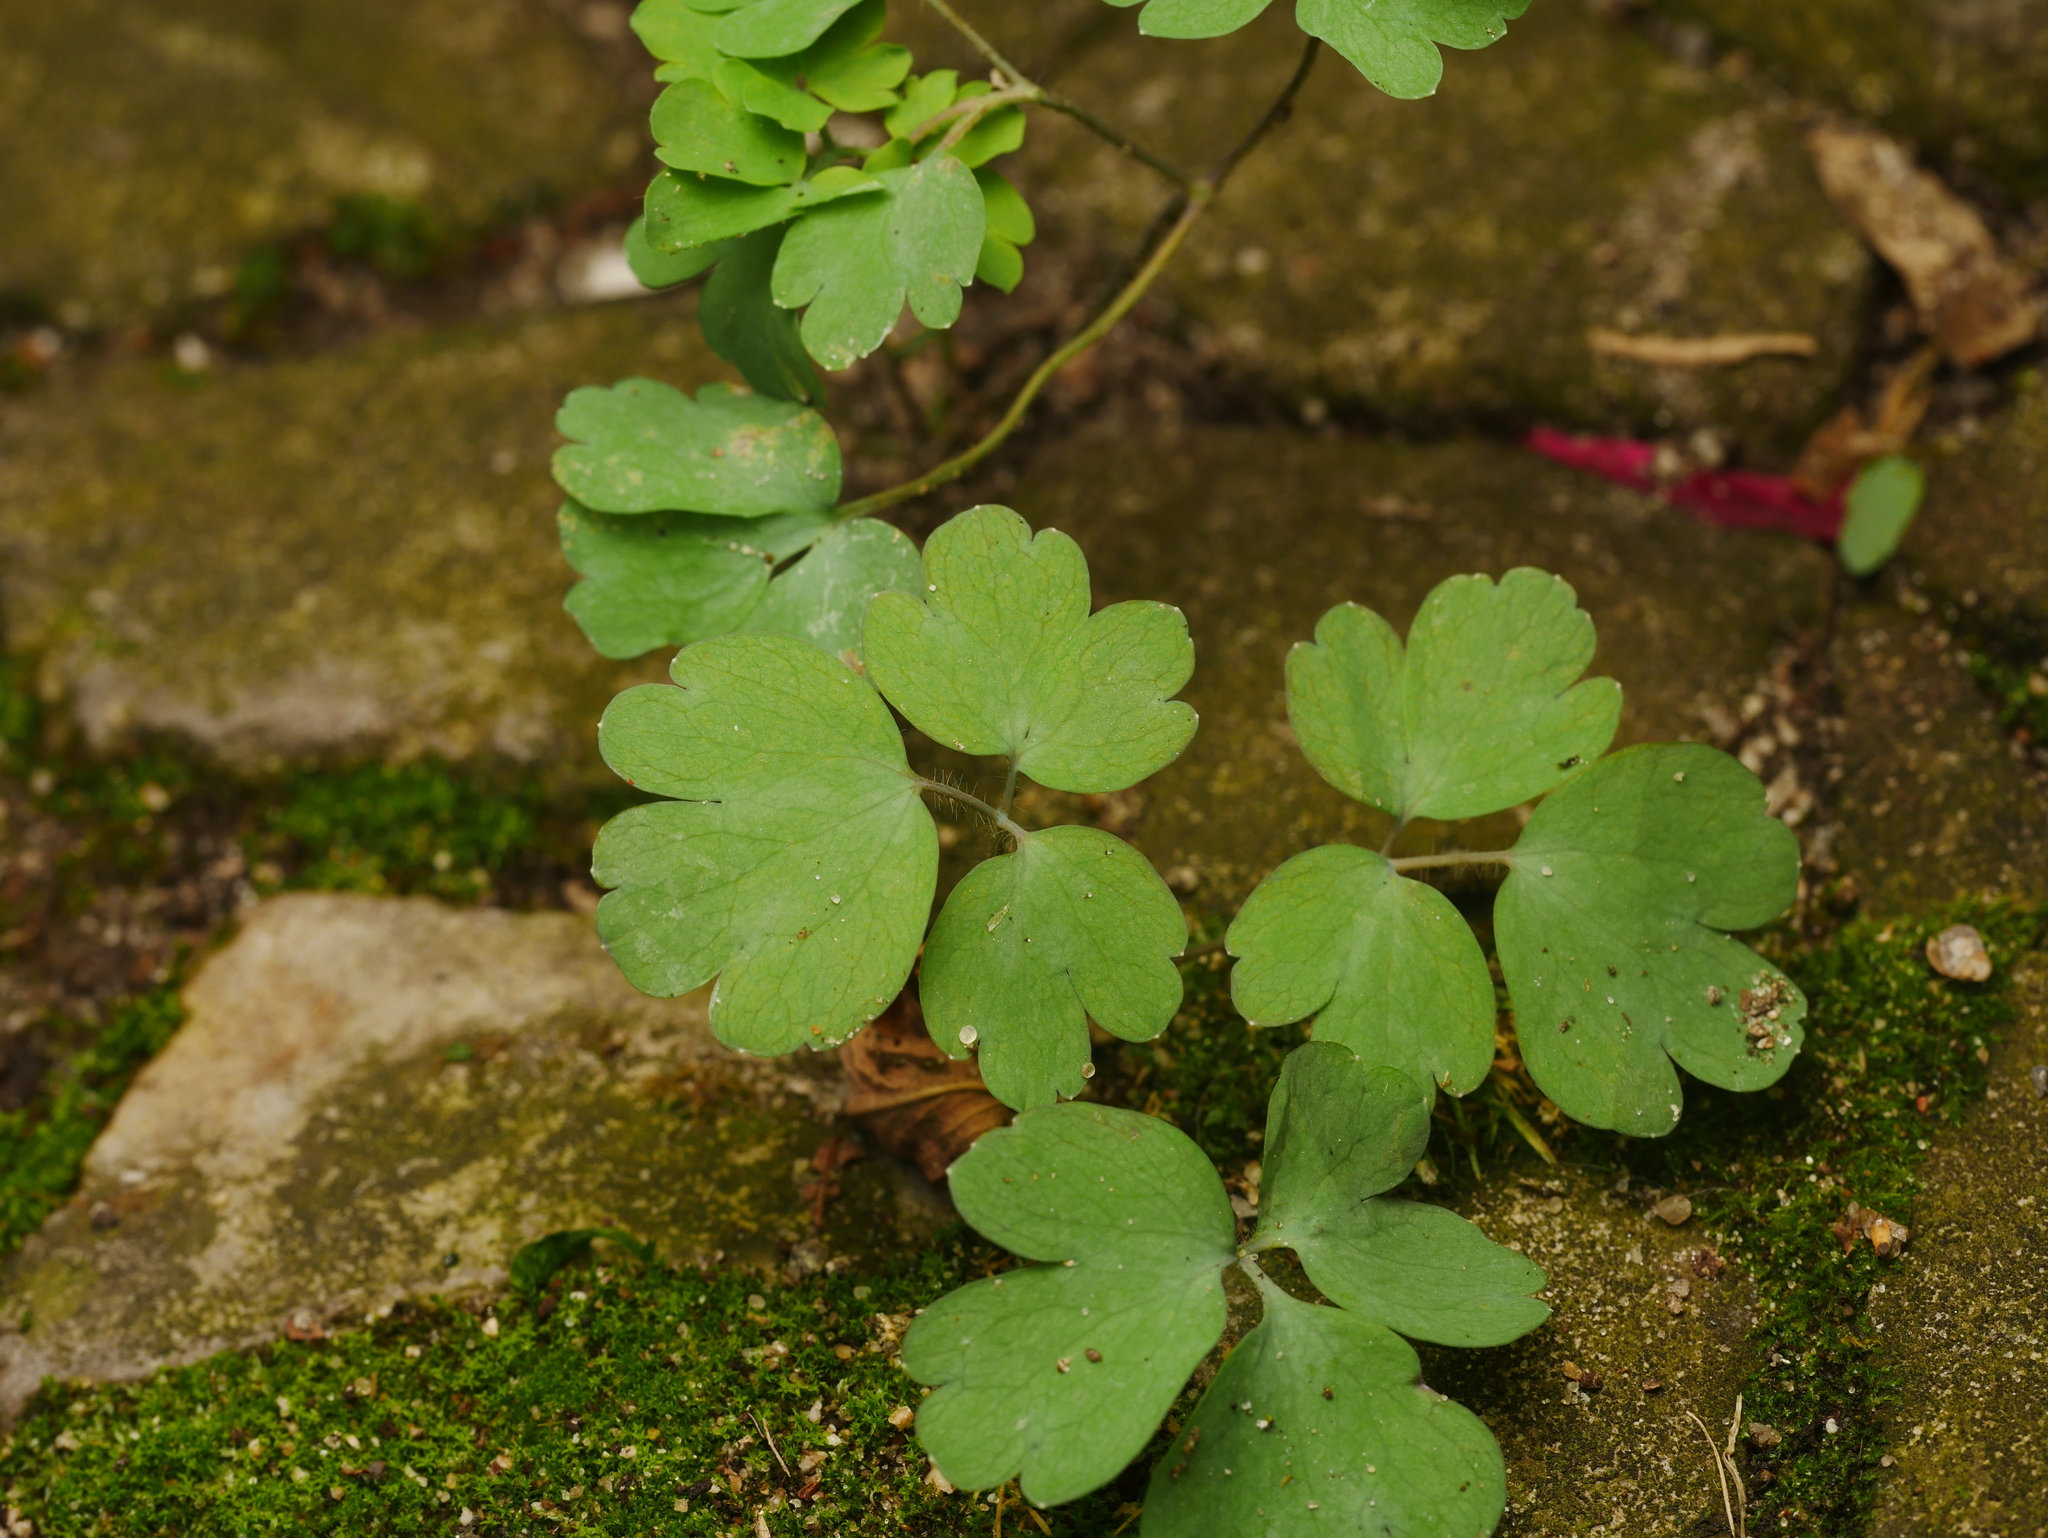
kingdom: Plantae
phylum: Tracheophyta
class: Magnoliopsida
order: Ranunculales
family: Ranunculaceae
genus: Aquilegia
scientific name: Aquilegia vulgaris
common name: Columbine
